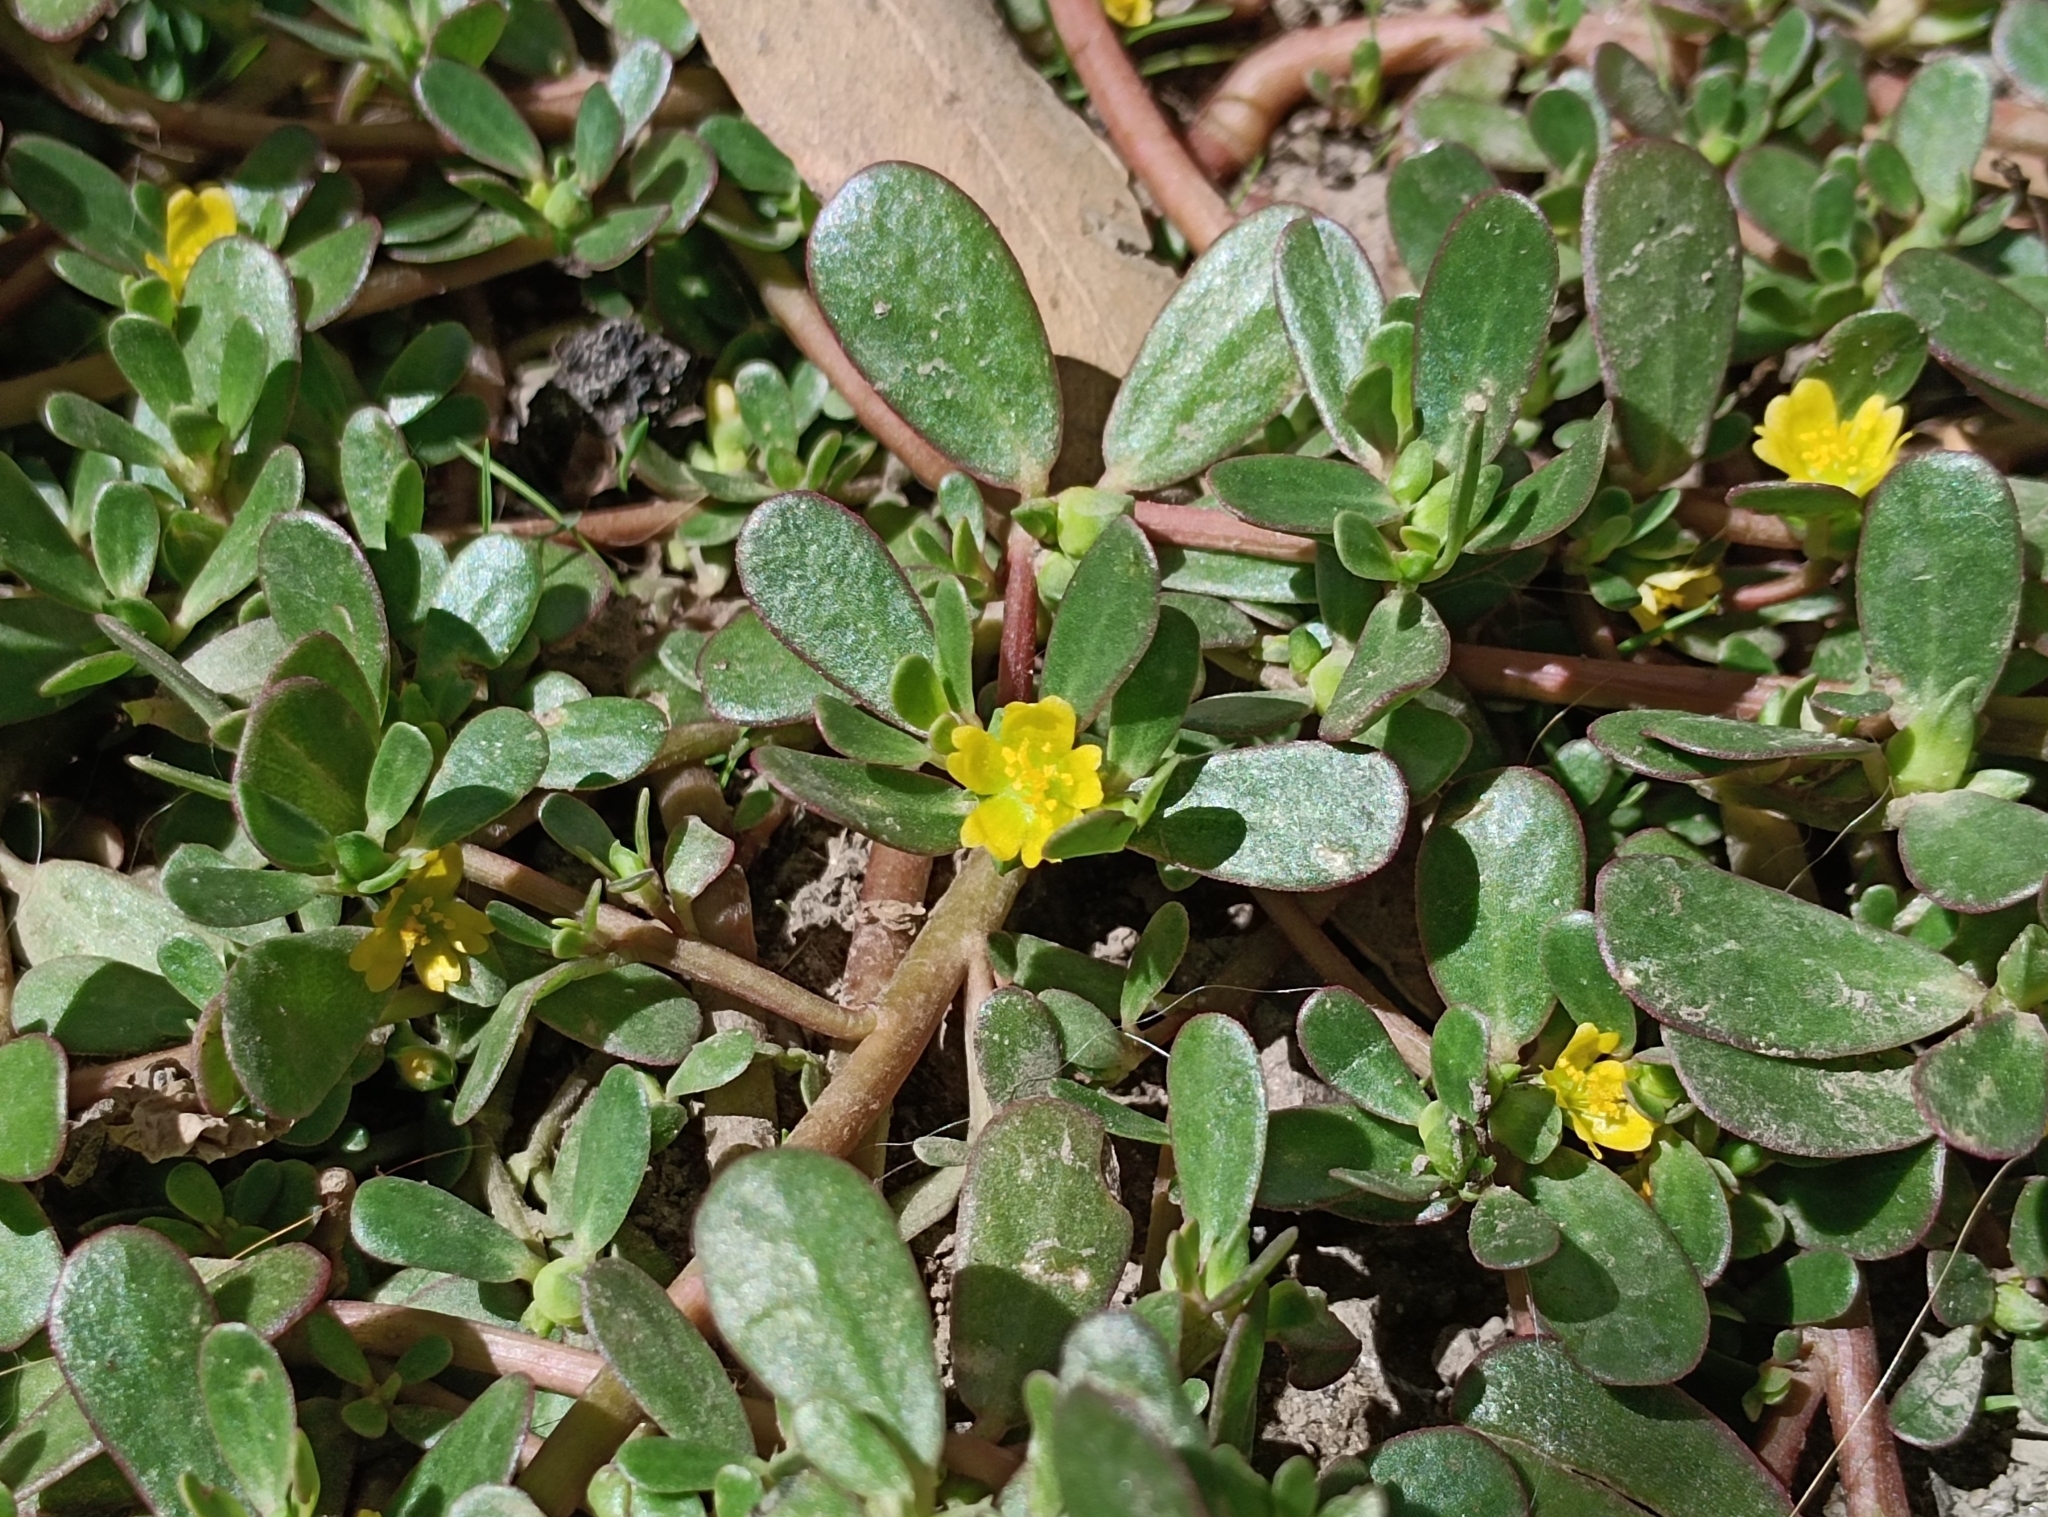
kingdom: Plantae
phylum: Tracheophyta
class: Magnoliopsida
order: Caryophyllales
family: Portulacaceae
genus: Portulaca
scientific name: Portulaca oleracea
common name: Common purslane
